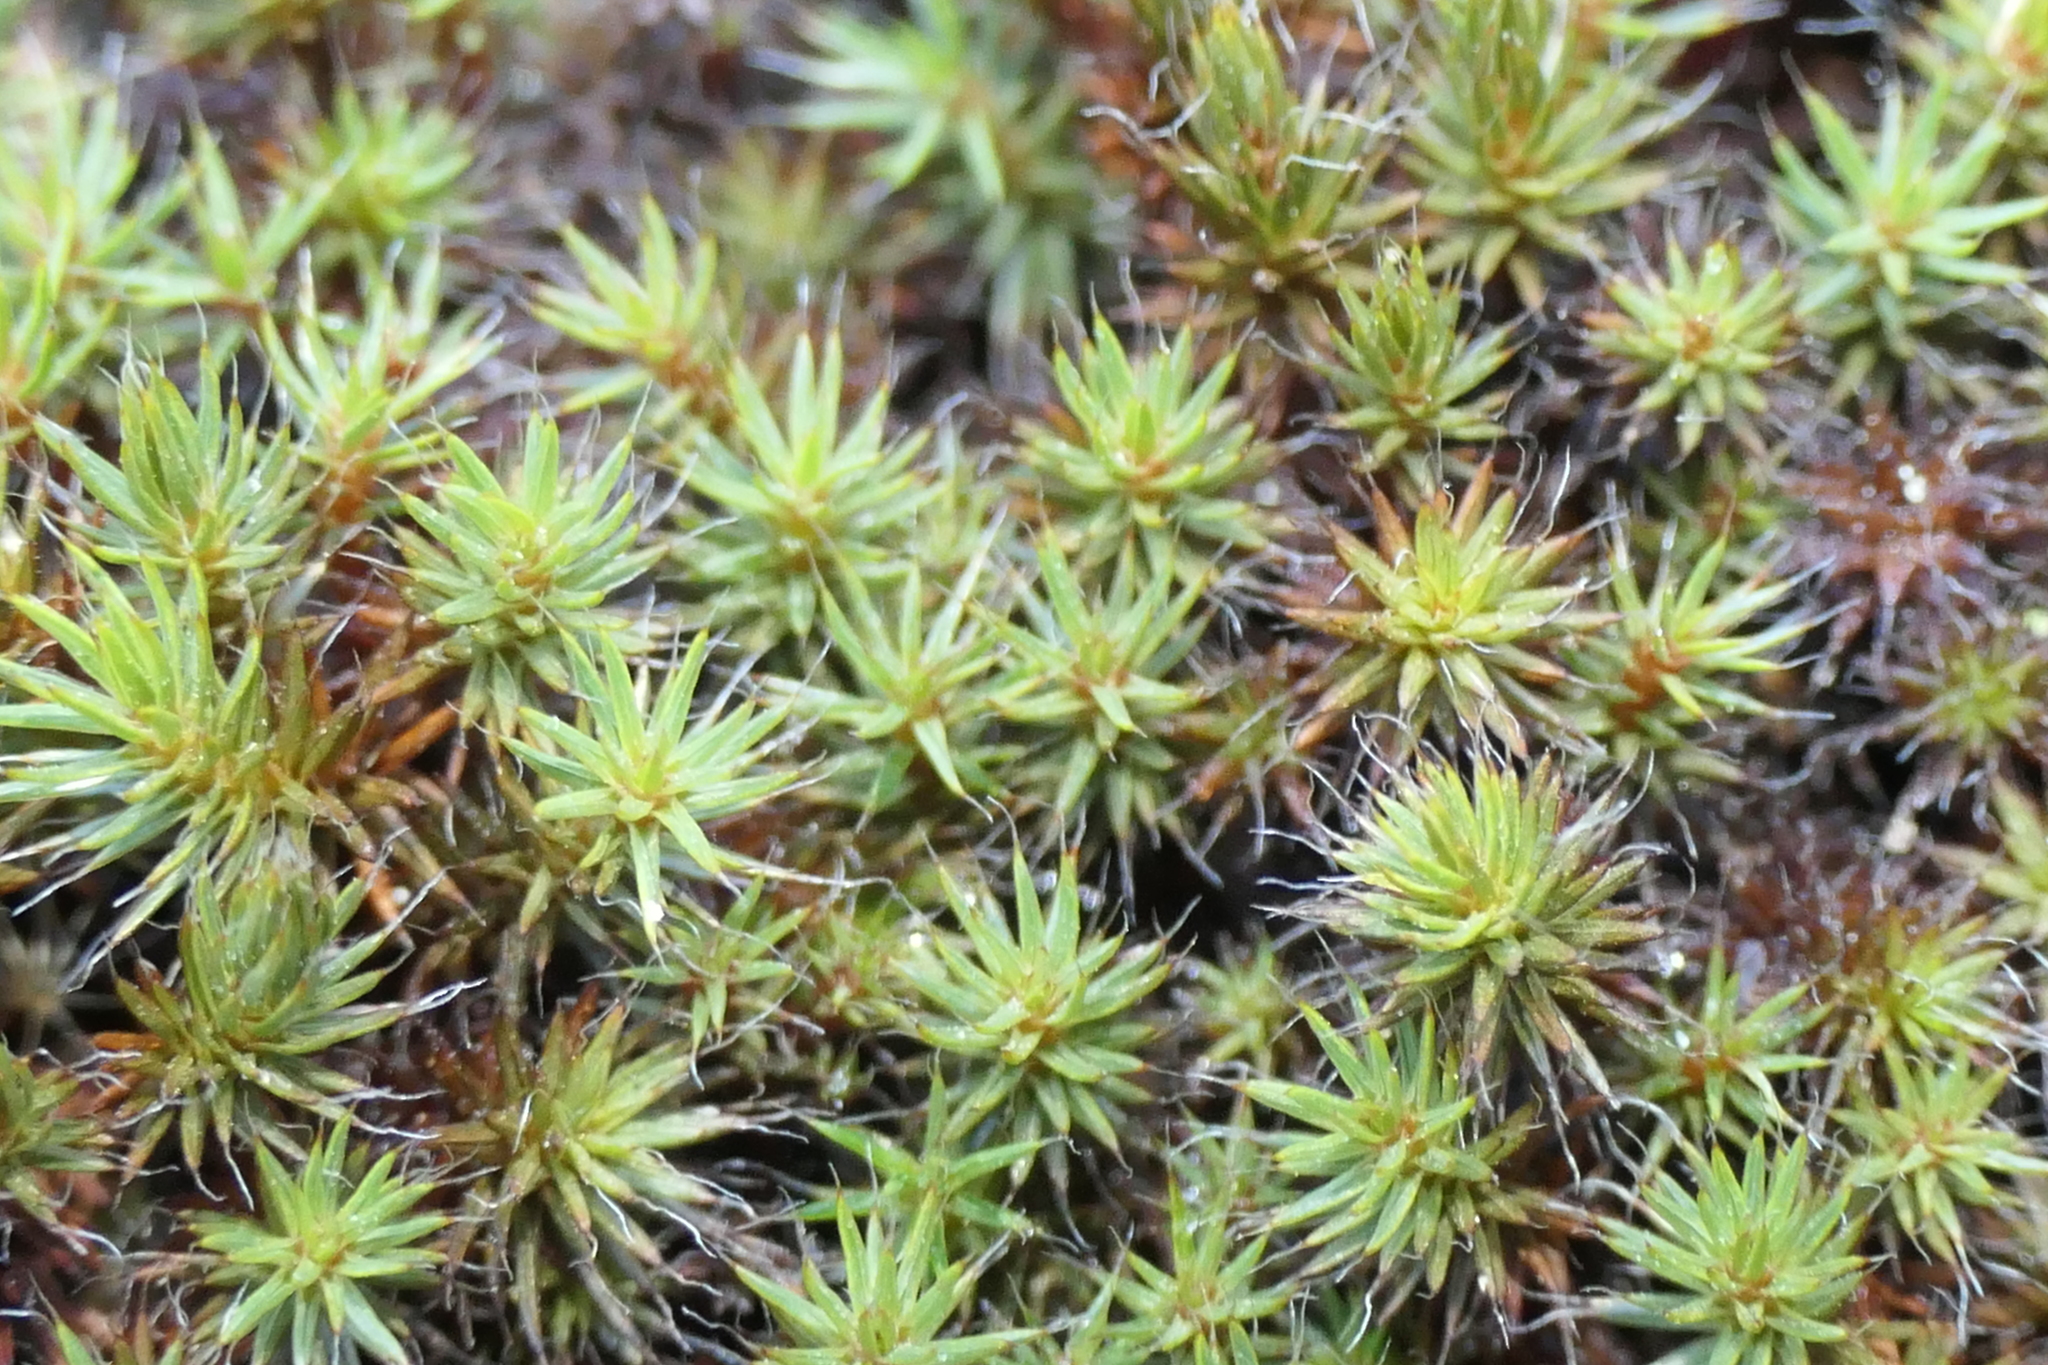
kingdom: Plantae
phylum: Bryophyta
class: Polytrichopsida
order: Polytrichales
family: Polytrichaceae
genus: Polytrichum
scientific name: Polytrichum piliferum
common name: Bristly haircap
